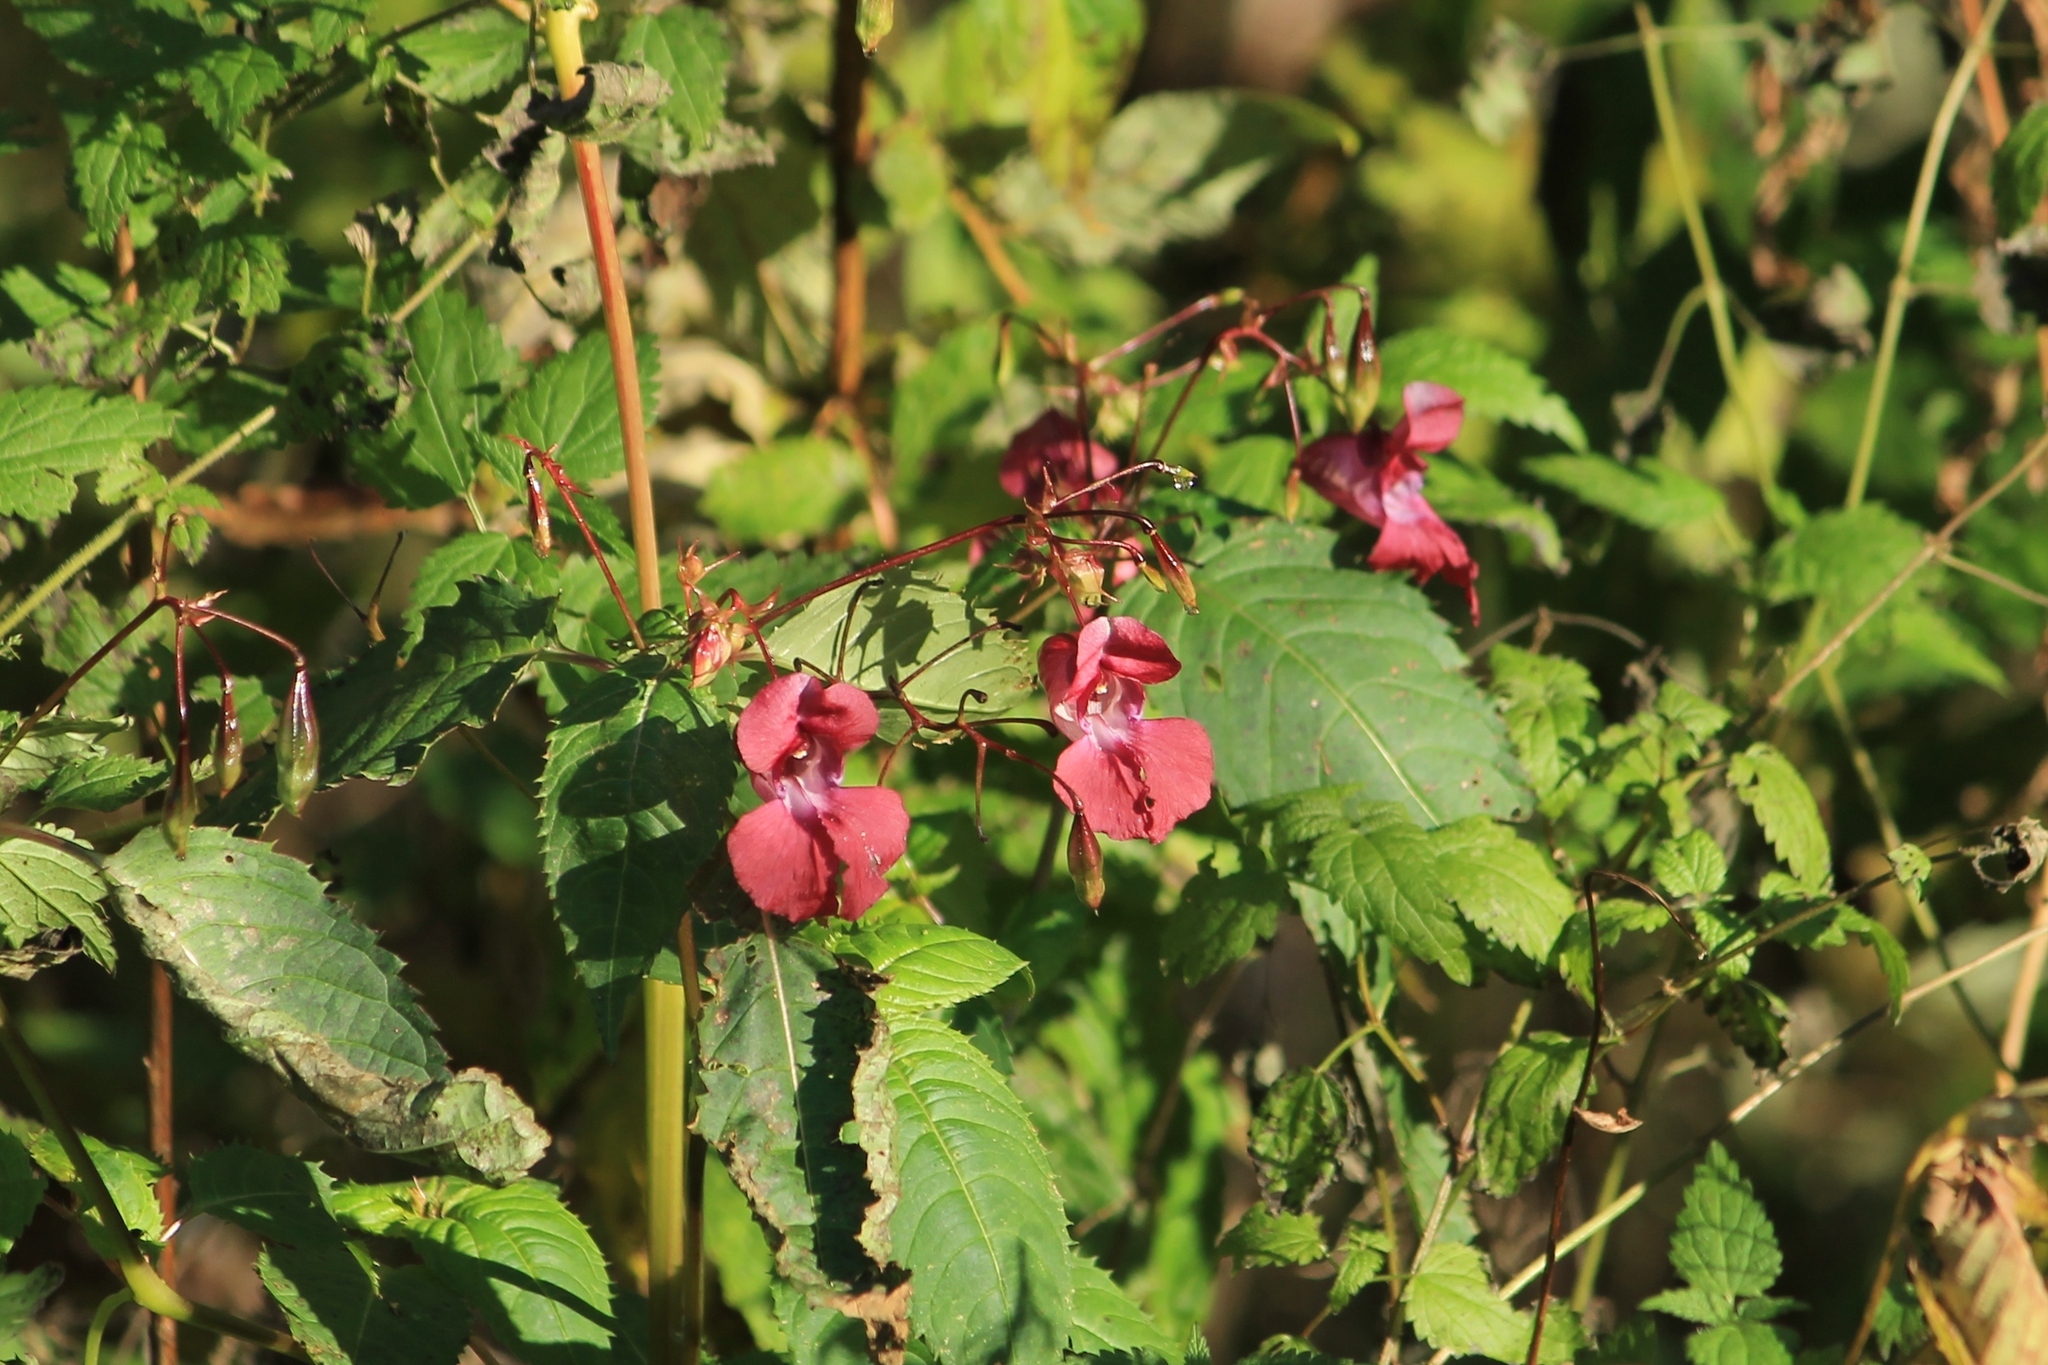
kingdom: Plantae
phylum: Tracheophyta
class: Magnoliopsida
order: Ericales
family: Balsaminaceae
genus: Impatiens
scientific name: Impatiens glandulifera
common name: Himalayan balsam
